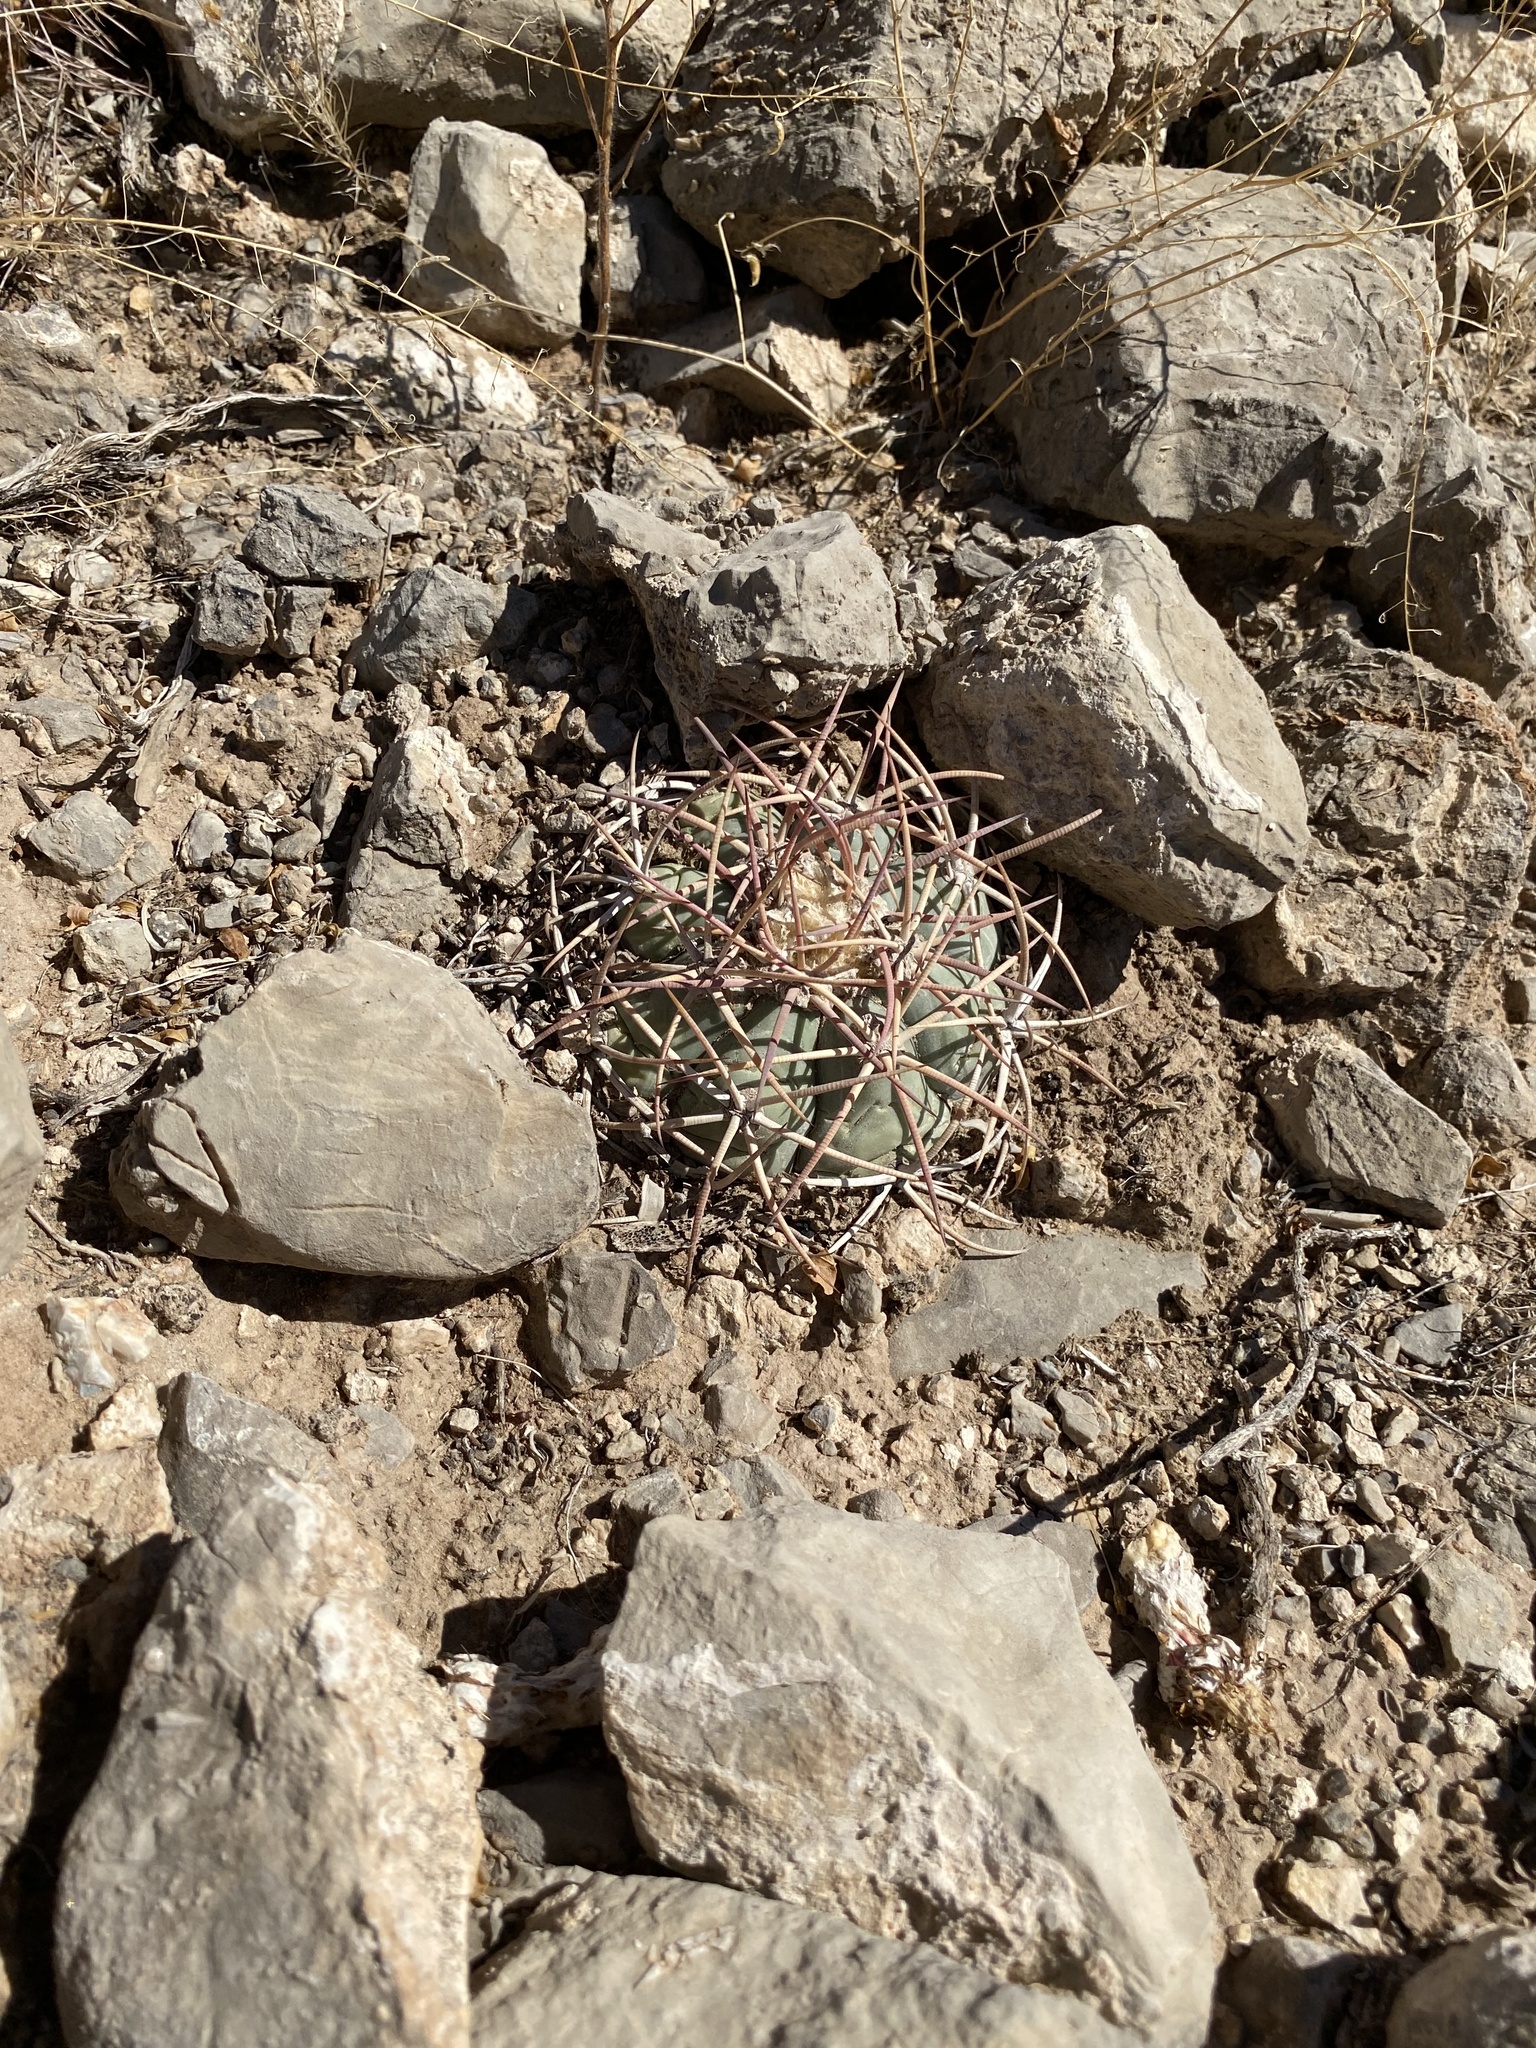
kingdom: Plantae
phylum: Tracheophyta
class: Magnoliopsida
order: Caryophyllales
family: Cactaceae
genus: Echinocactus
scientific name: Echinocactus horizonthalonius
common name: Devilshead
